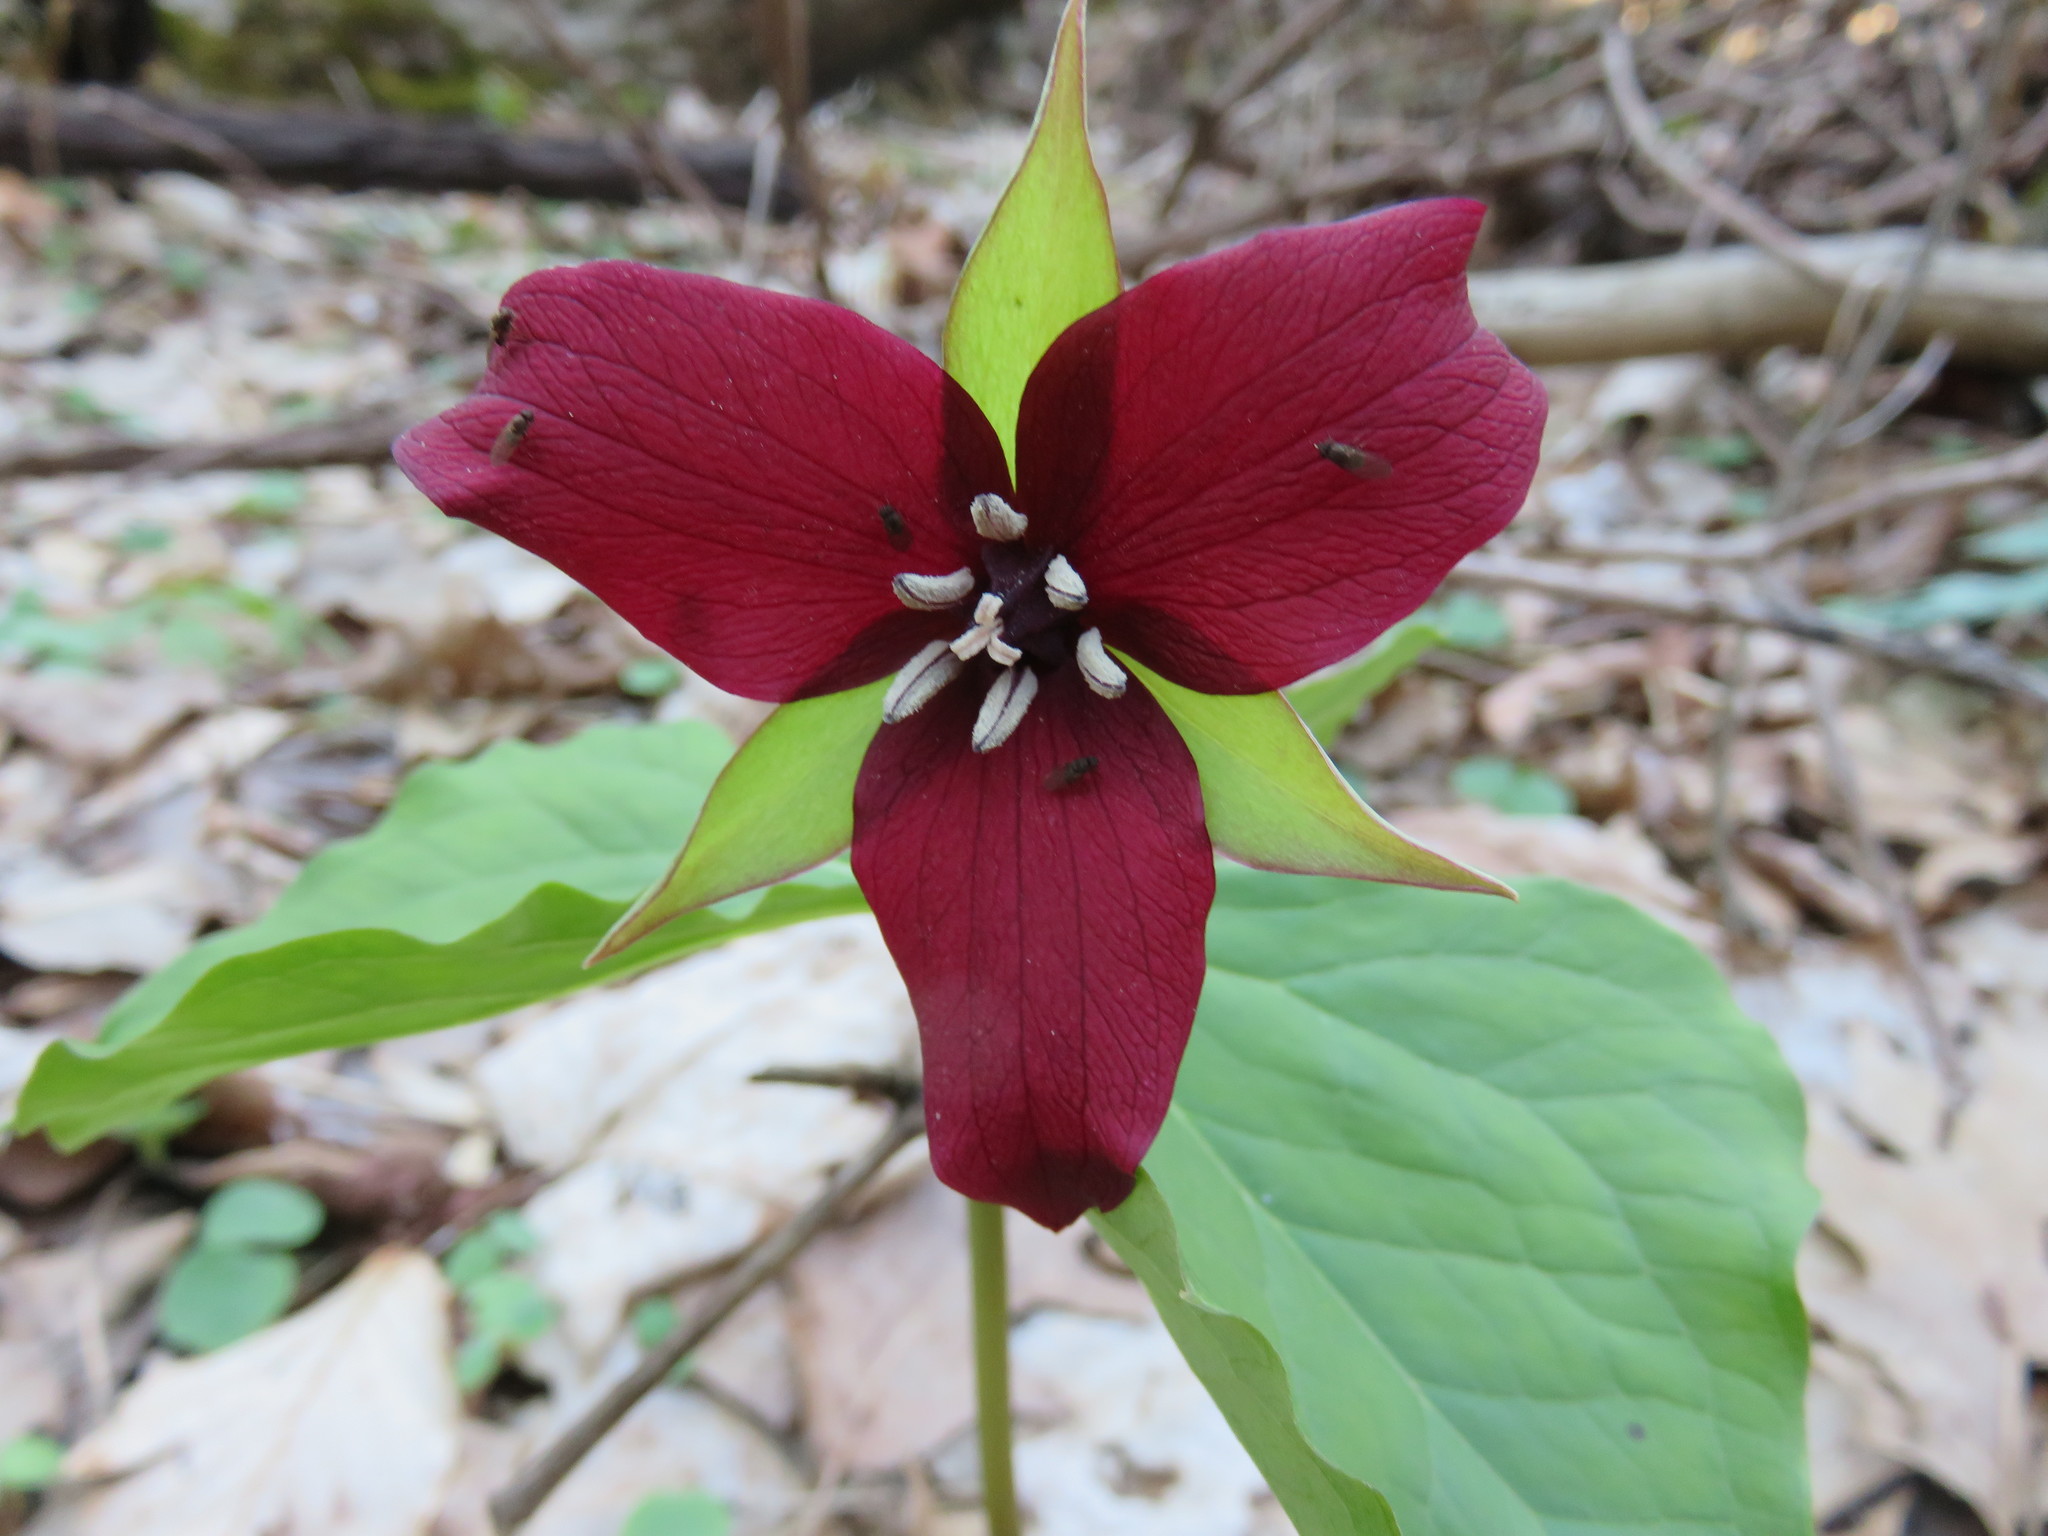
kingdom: Plantae
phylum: Tracheophyta
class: Liliopsida
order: Liliales
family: Melanthiaceae
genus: Trillium
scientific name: Trillium erectum
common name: Purple trillium
